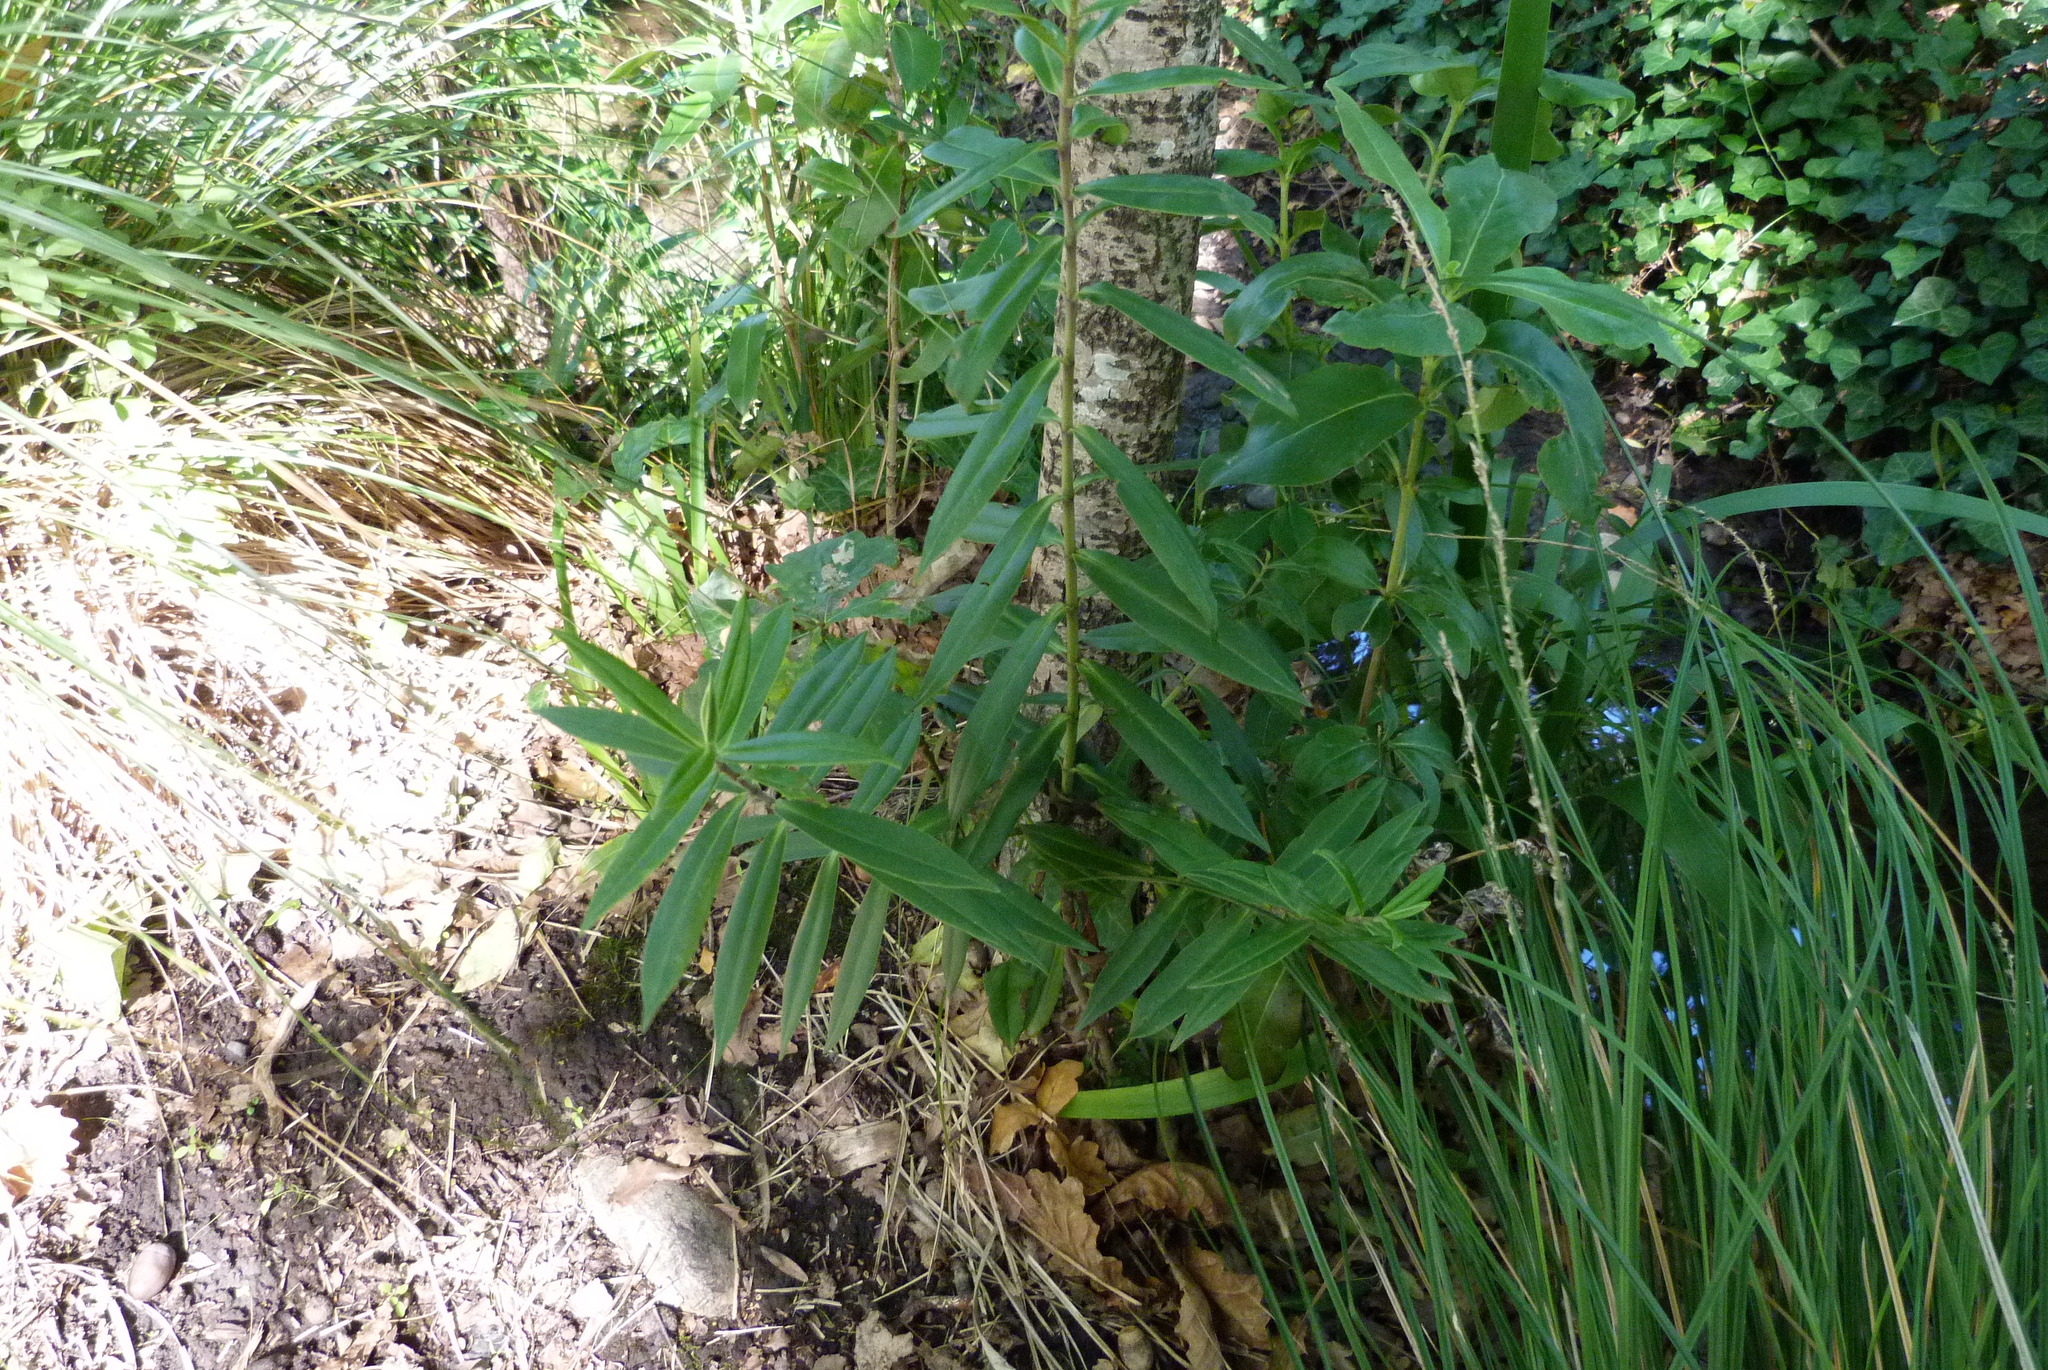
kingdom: Plantae
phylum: Tracheophyta
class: Magnoliopsida
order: Lamiales
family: Plantaginaceae
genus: Veronica
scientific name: Veronica salicifolia
